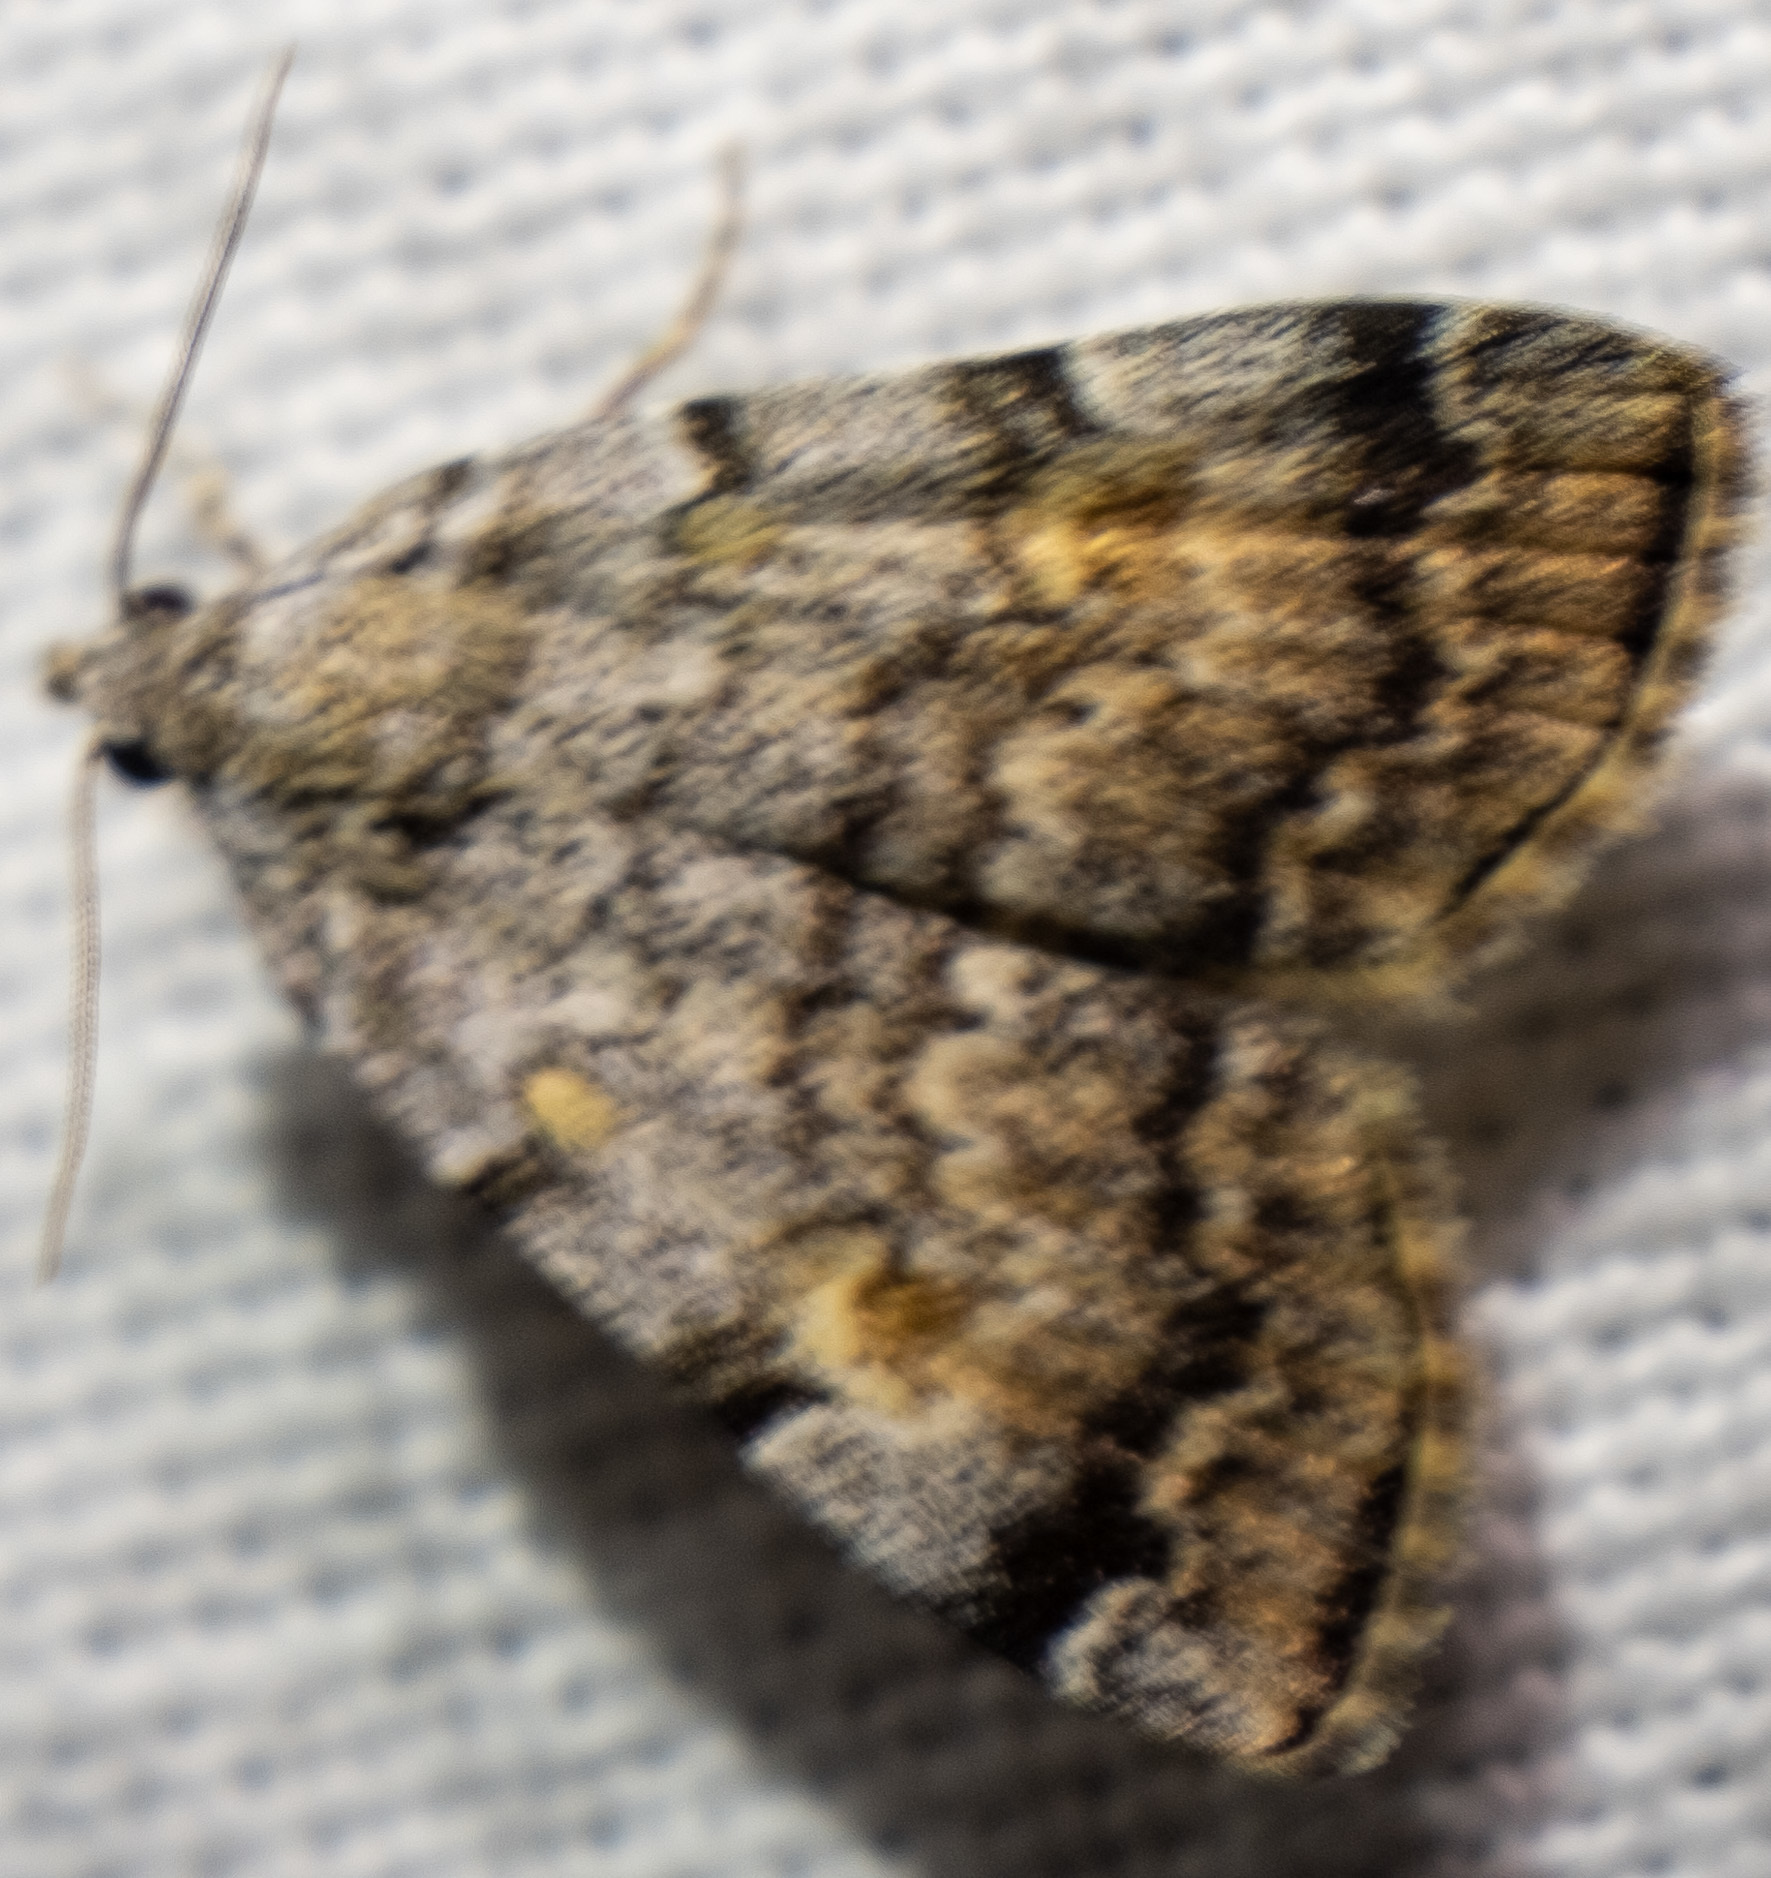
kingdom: Animalia
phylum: Arthropoda
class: Insecta
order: Lepidoptera
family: Erebidae
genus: Idia
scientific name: Idia americalis
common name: American idia moth
